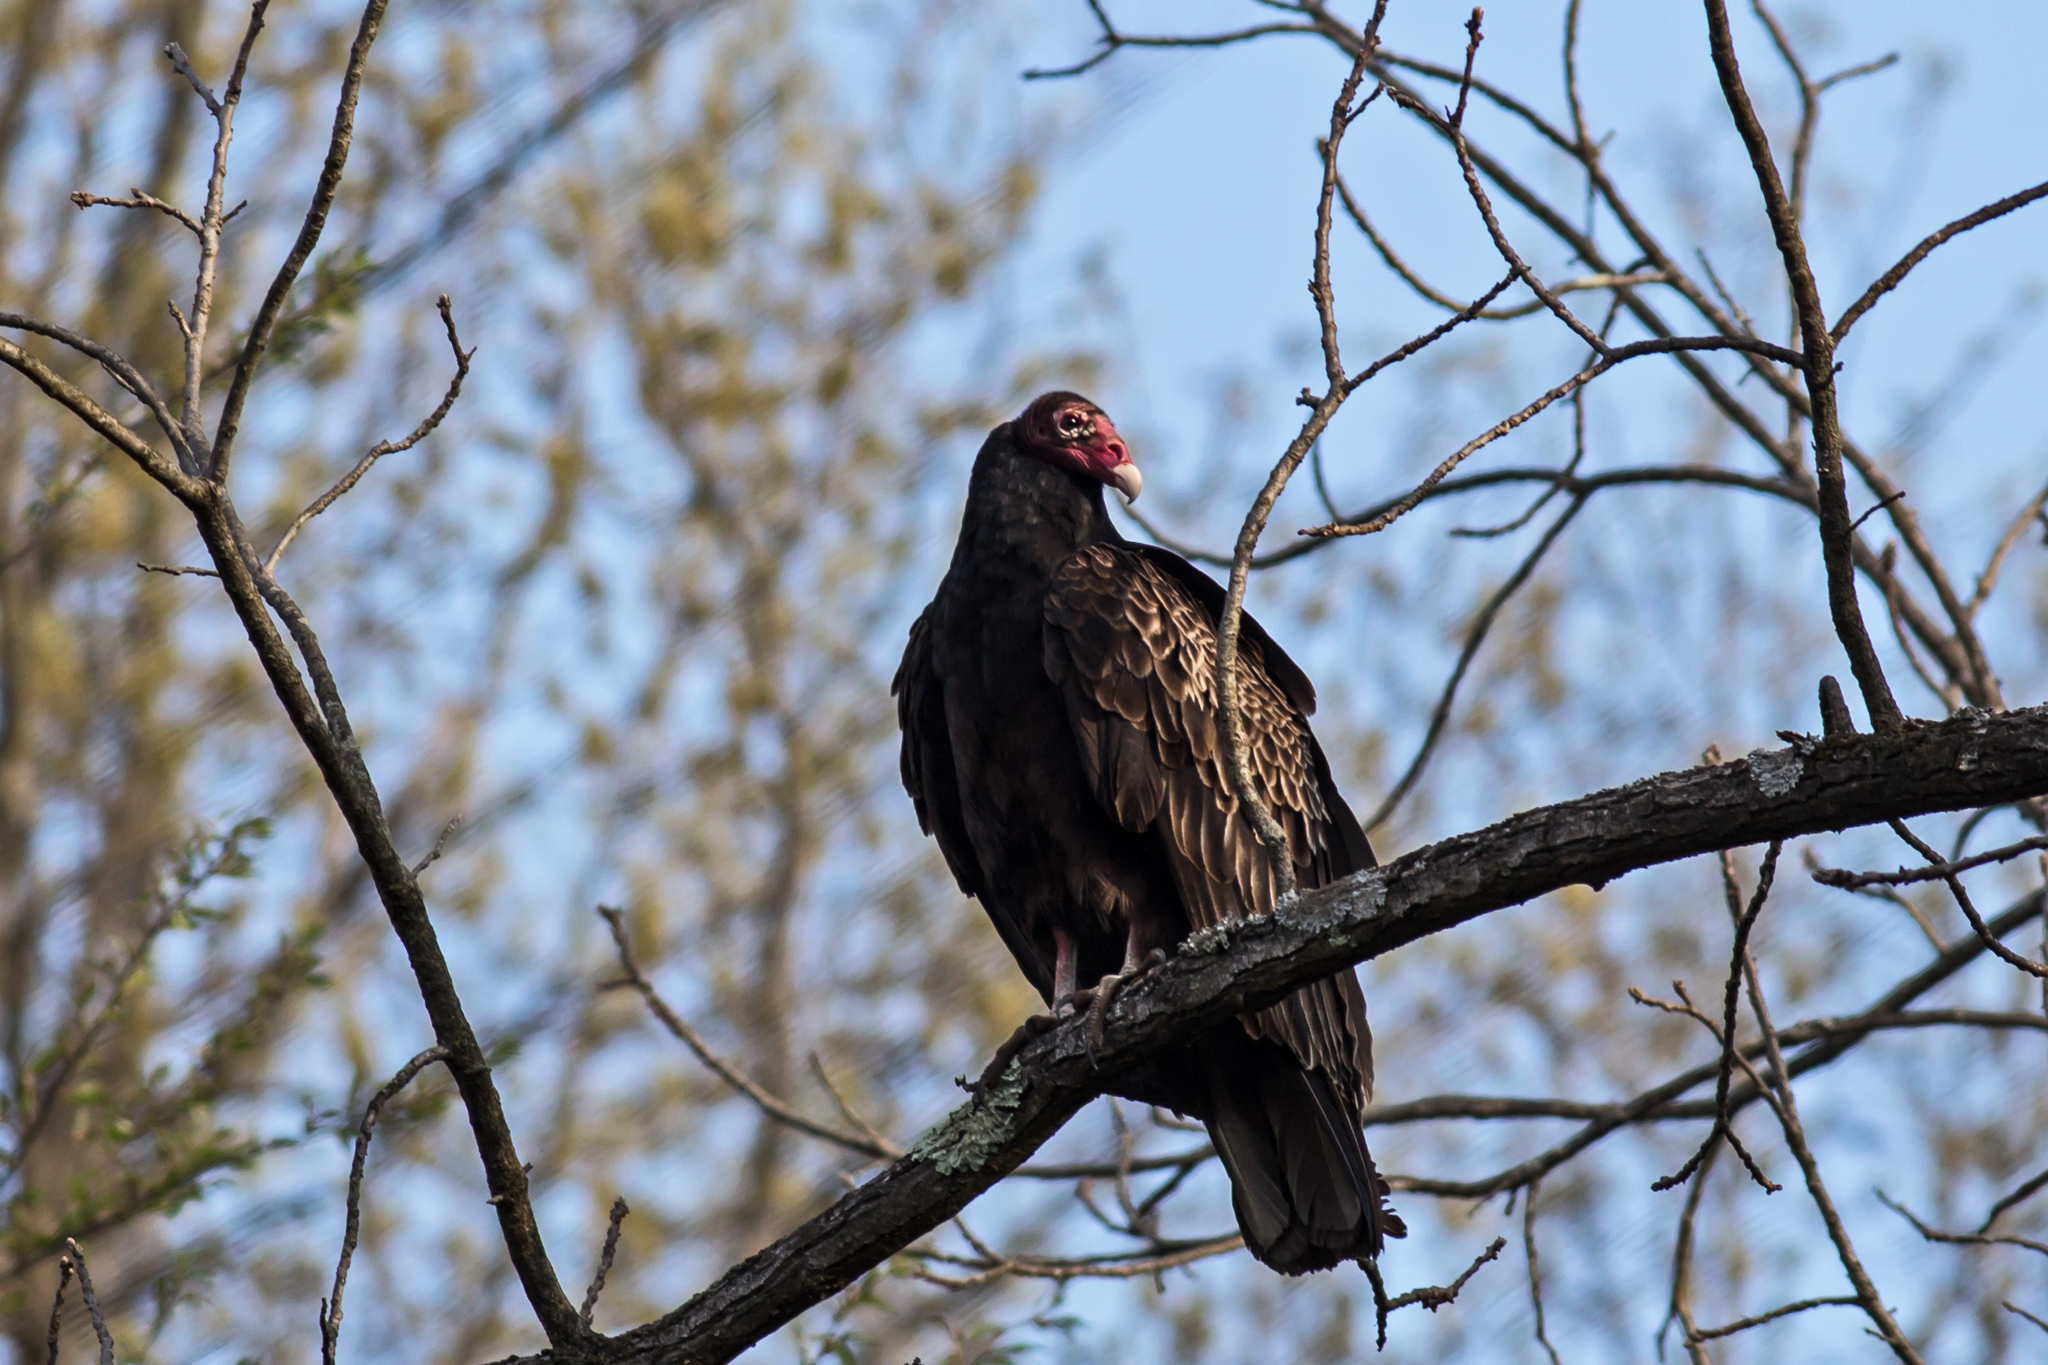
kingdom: Animalia
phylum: Chordata
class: Aves
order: Accipitriformes
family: Cathartidae
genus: Cathartes
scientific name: Cathartes aura
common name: Turkey vulture
